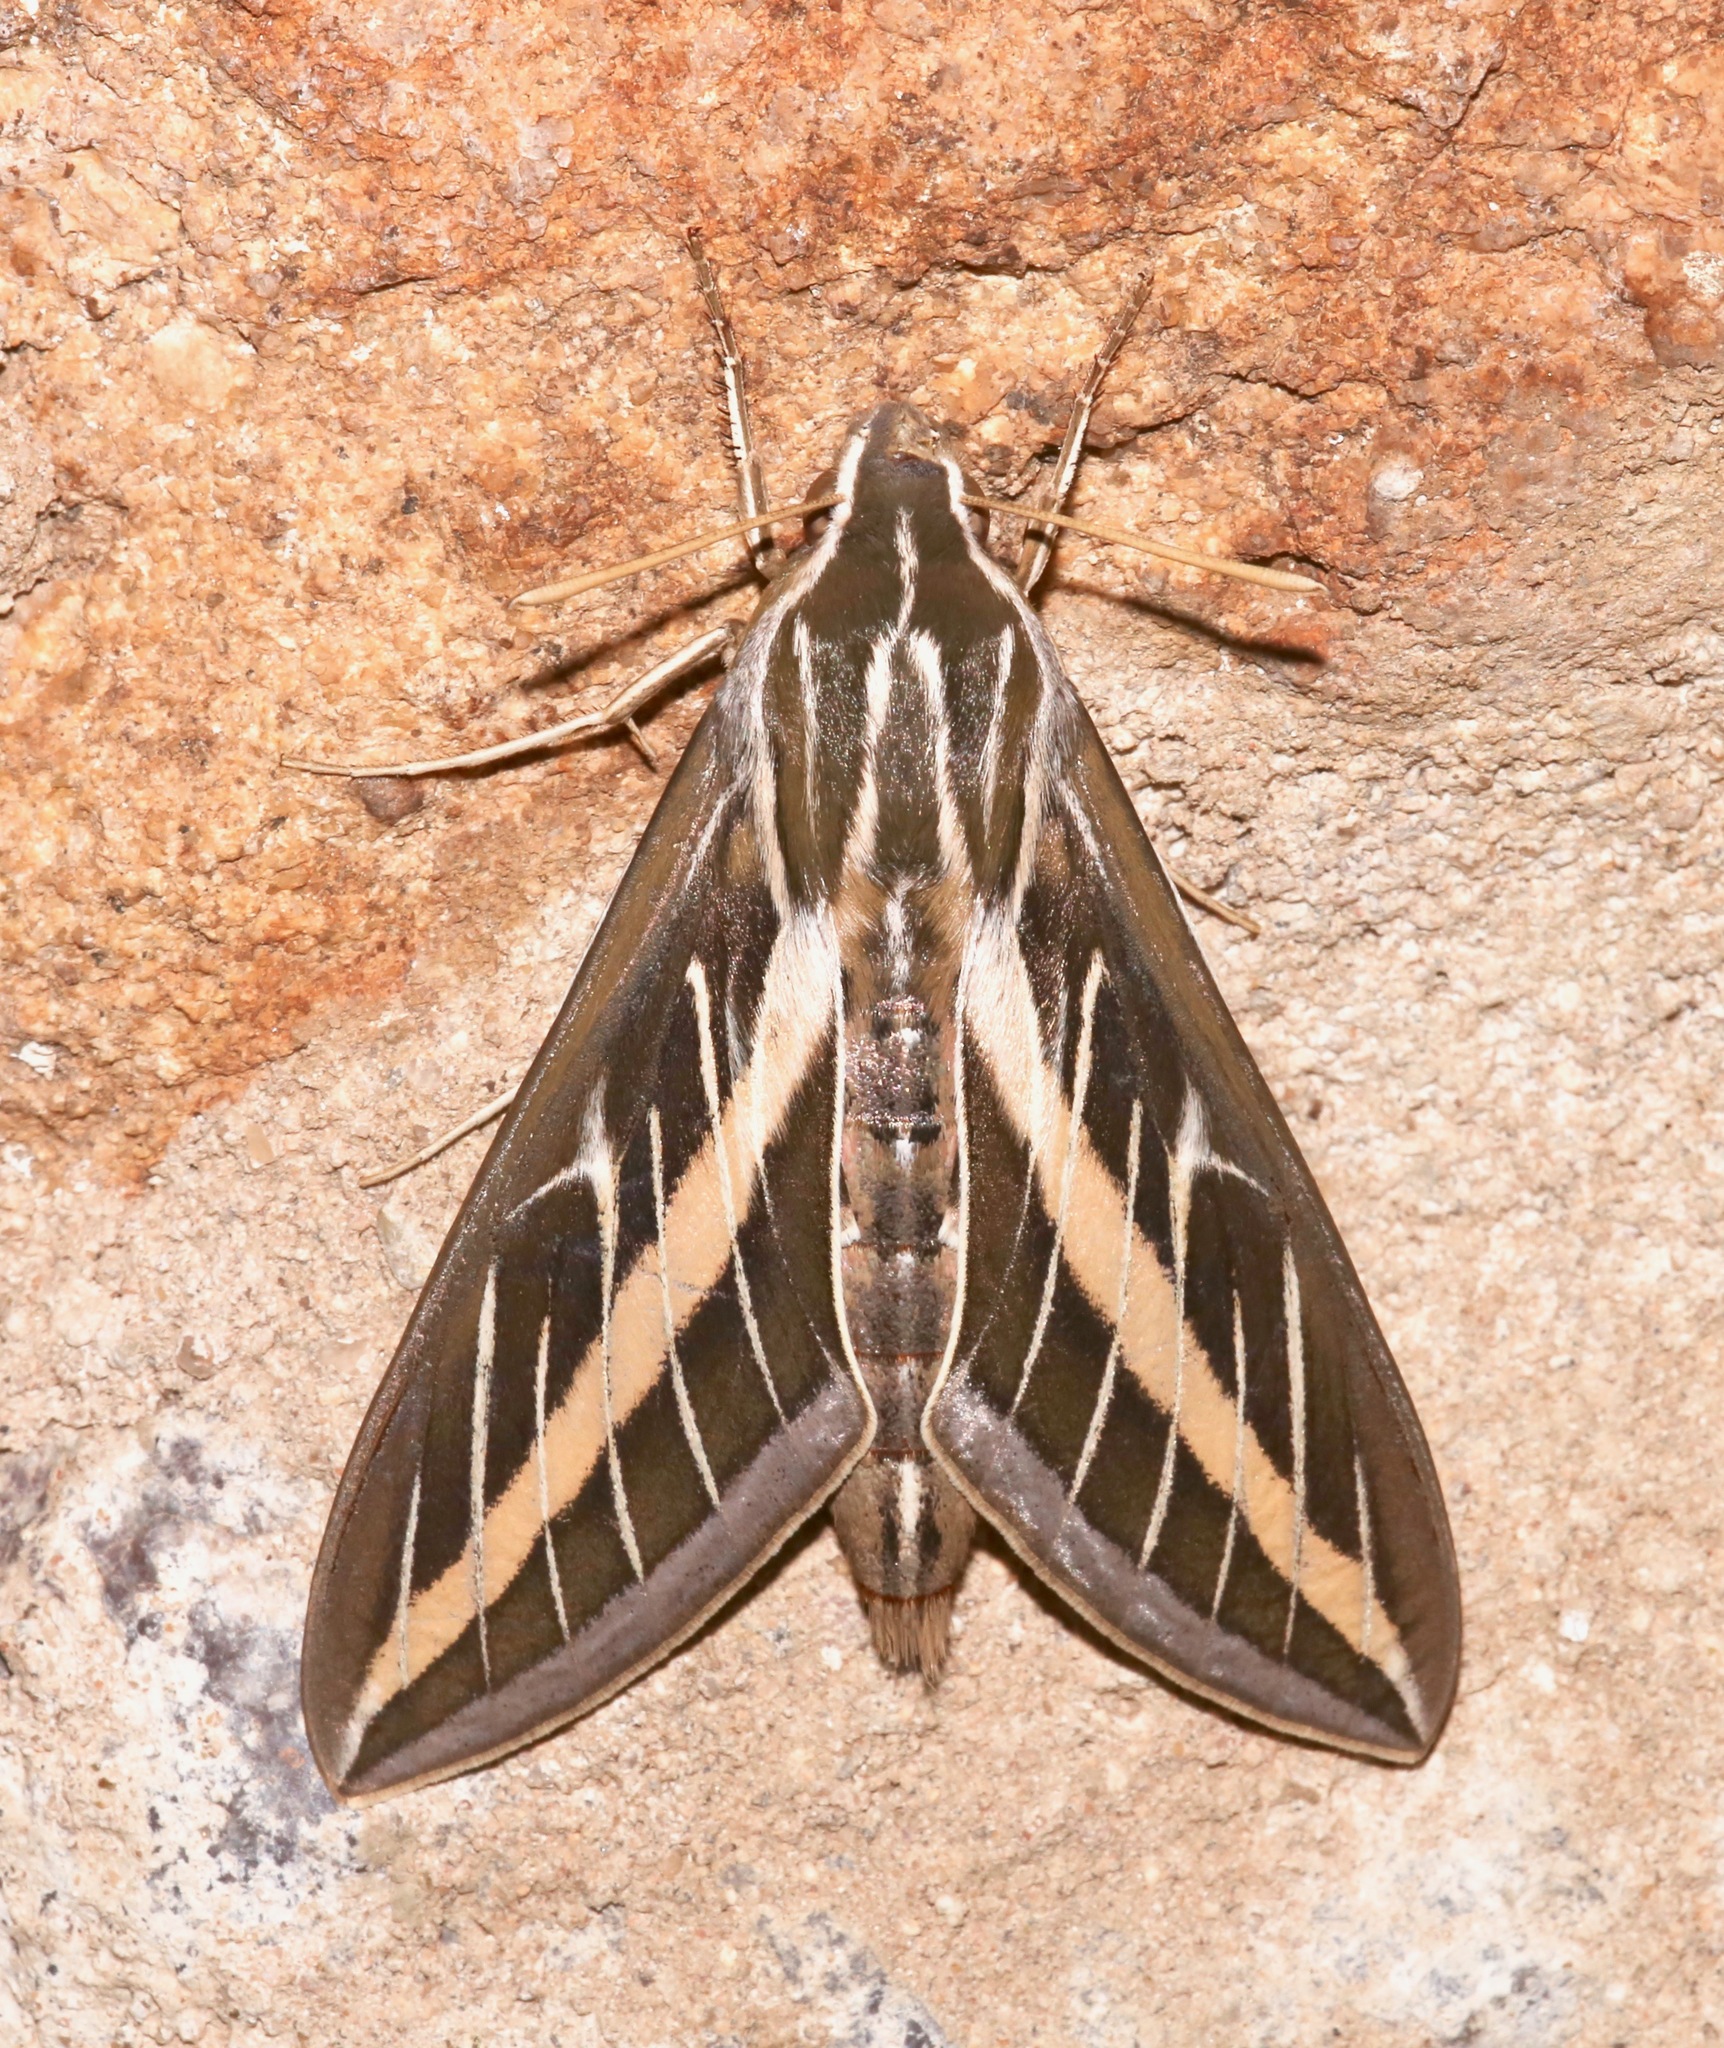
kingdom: Animalia
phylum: Arthropoda
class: Insecta
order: Lepidoptera
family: Sphingidae
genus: Hyles
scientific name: Hyles lineata
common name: White-lined sphinx
